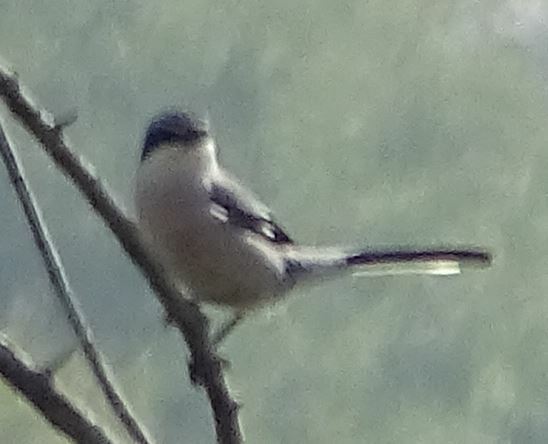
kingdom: Animalia
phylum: Chordata
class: Aves
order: Passeriformes
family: Laniidae
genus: Lanius
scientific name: Lanius meridionalis
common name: Iberian grey shrike
